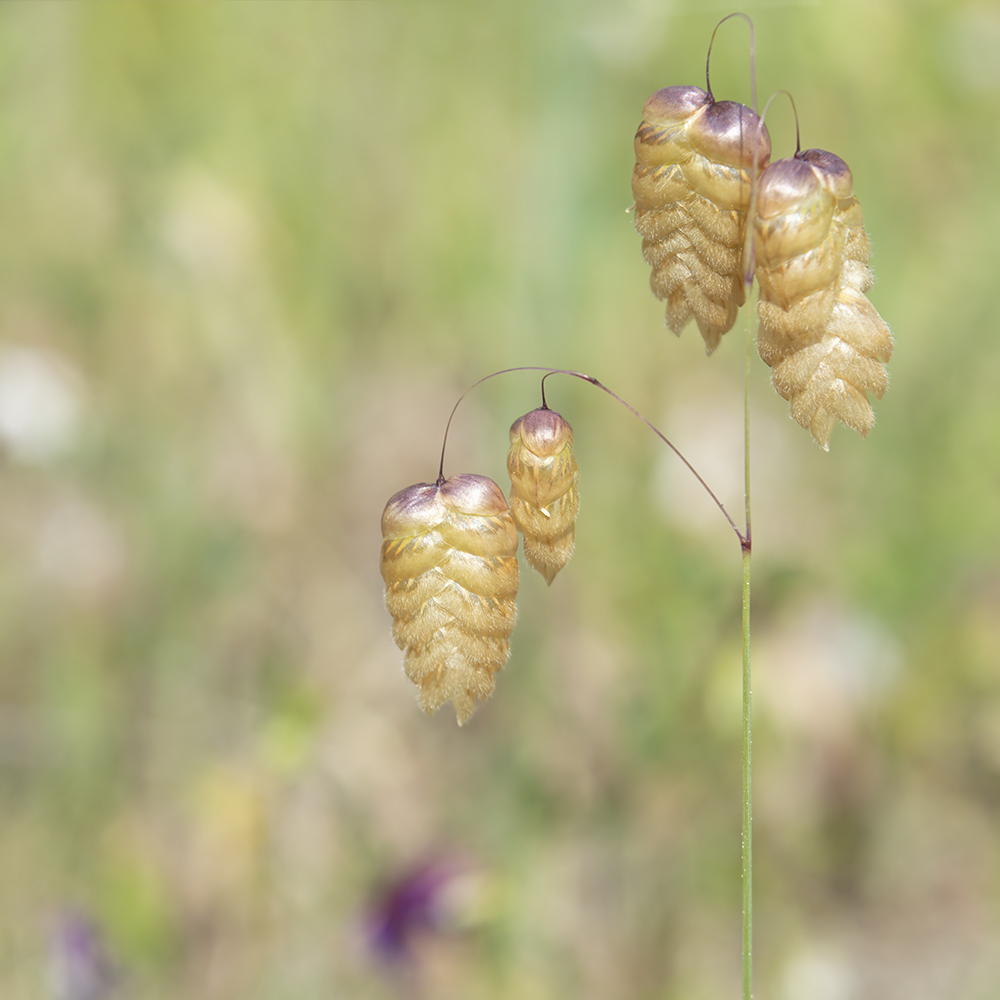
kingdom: Plantae
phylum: Tracheophyta
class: Liliopsida
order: Poales
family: Poaceae
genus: Briza
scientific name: Briza maxima
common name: Big quakinggrass
